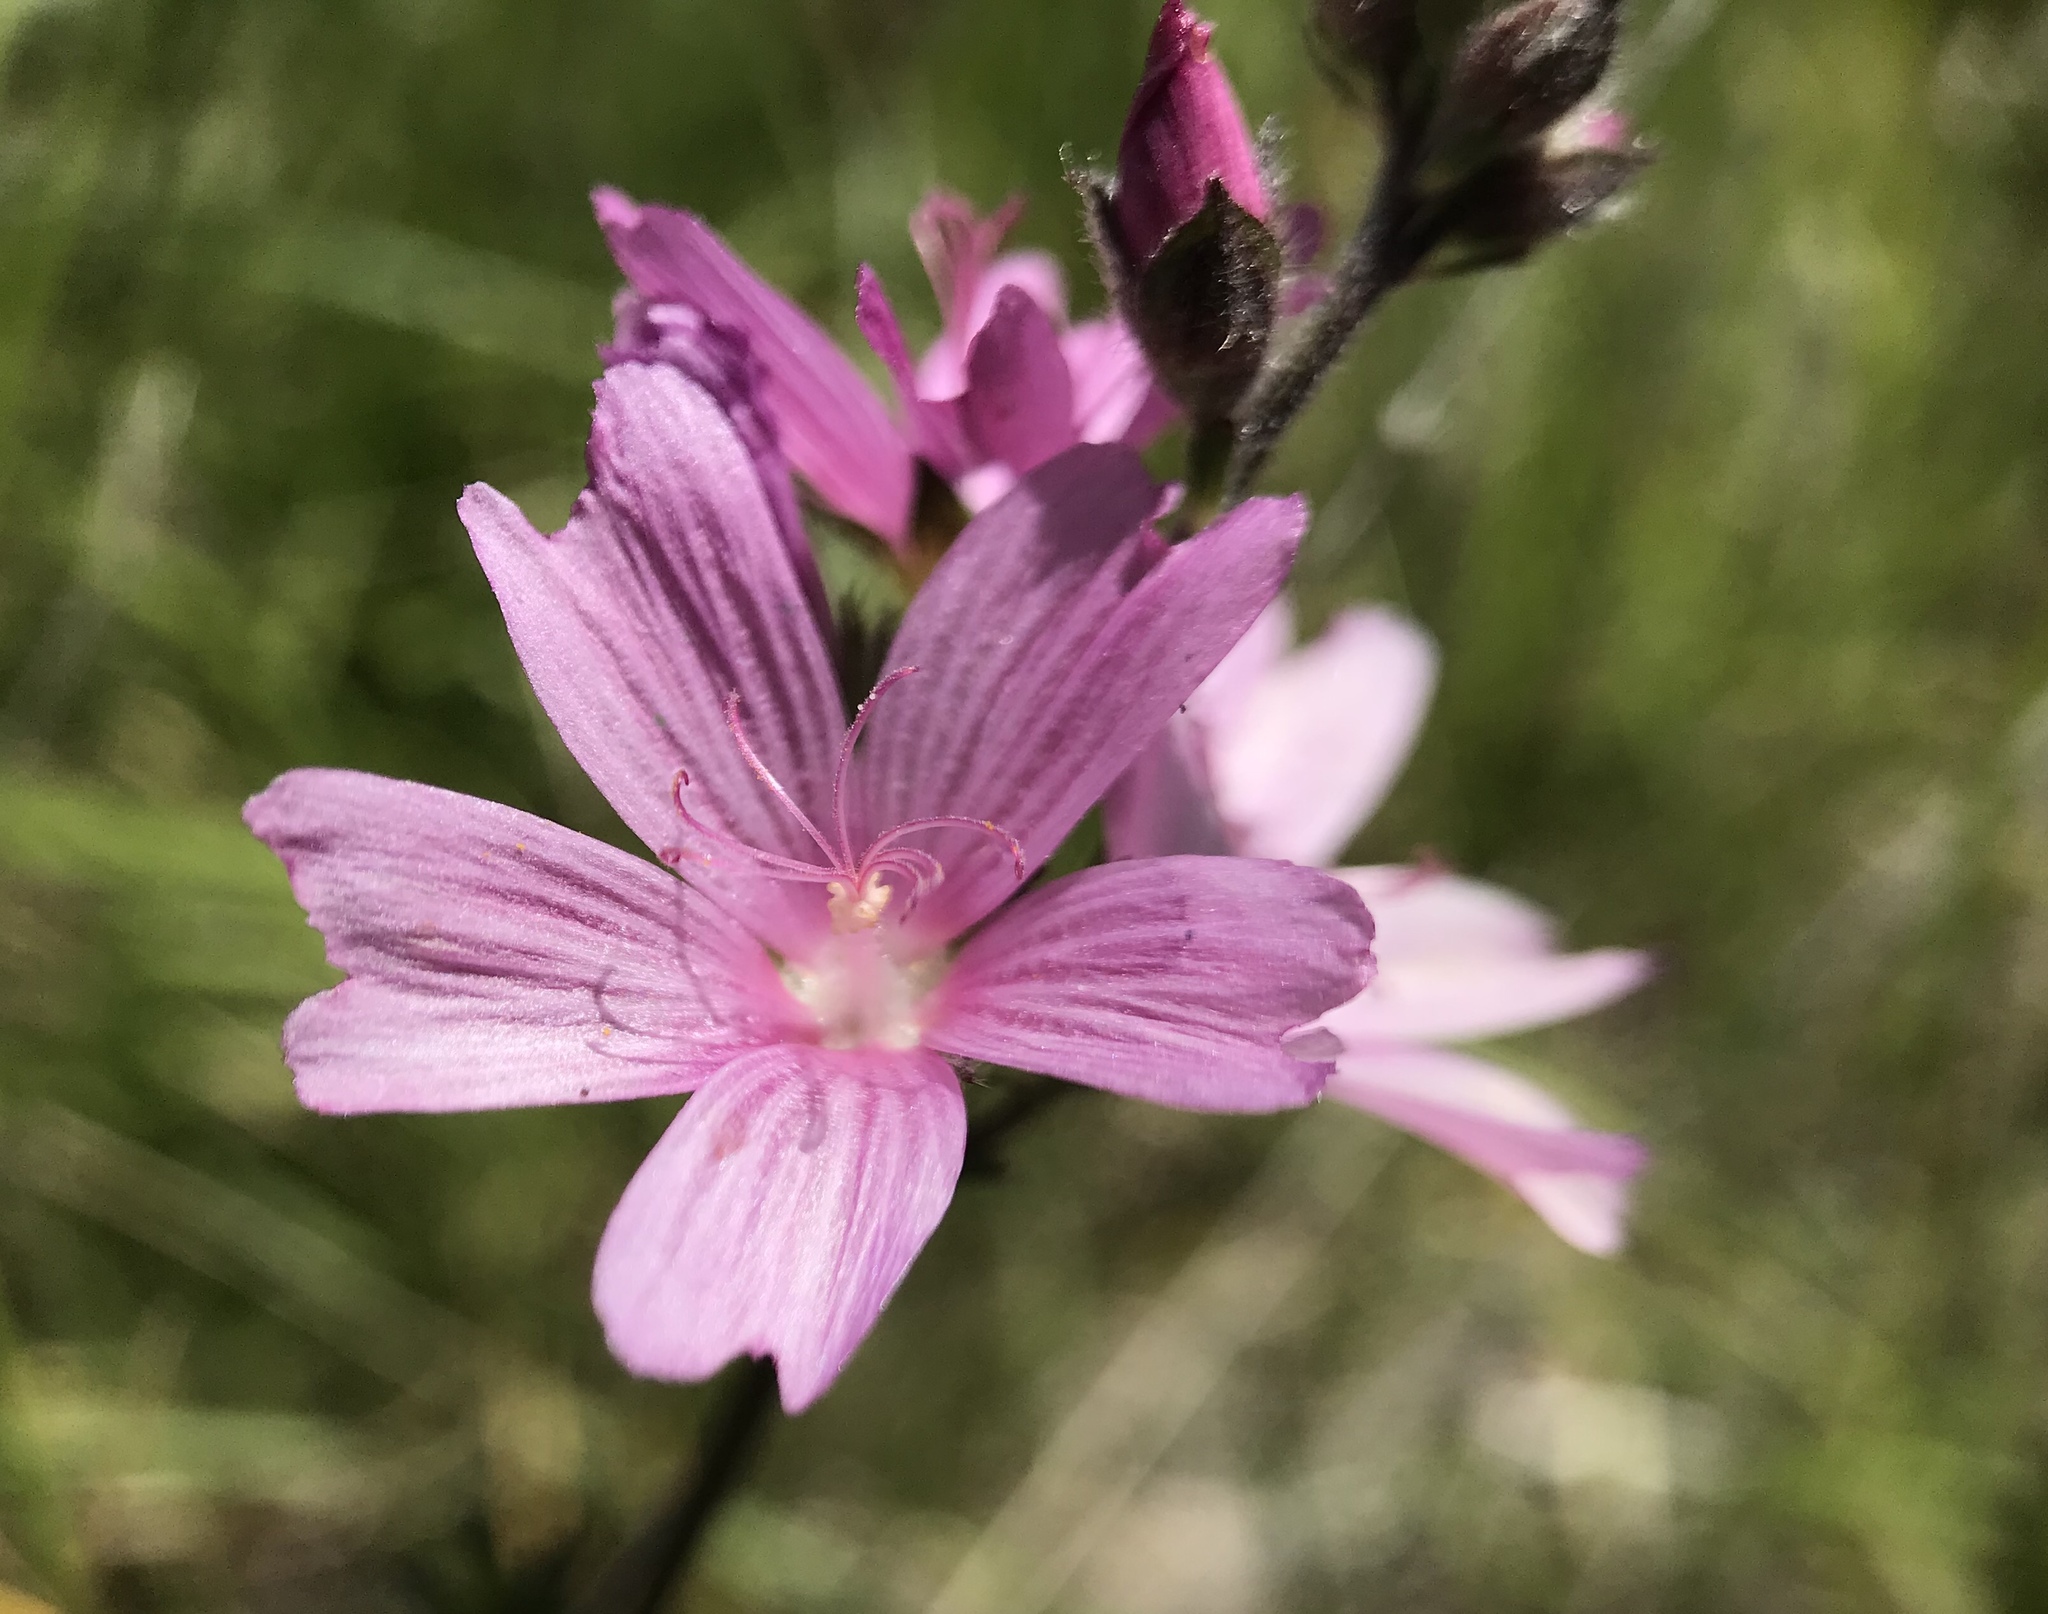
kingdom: Plantae
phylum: Tracheophyta
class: Magnoliopsida
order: Malvales
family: Malvaceae
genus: Sidalcea
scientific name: Sidalcea malviflora
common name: Greek mallow
